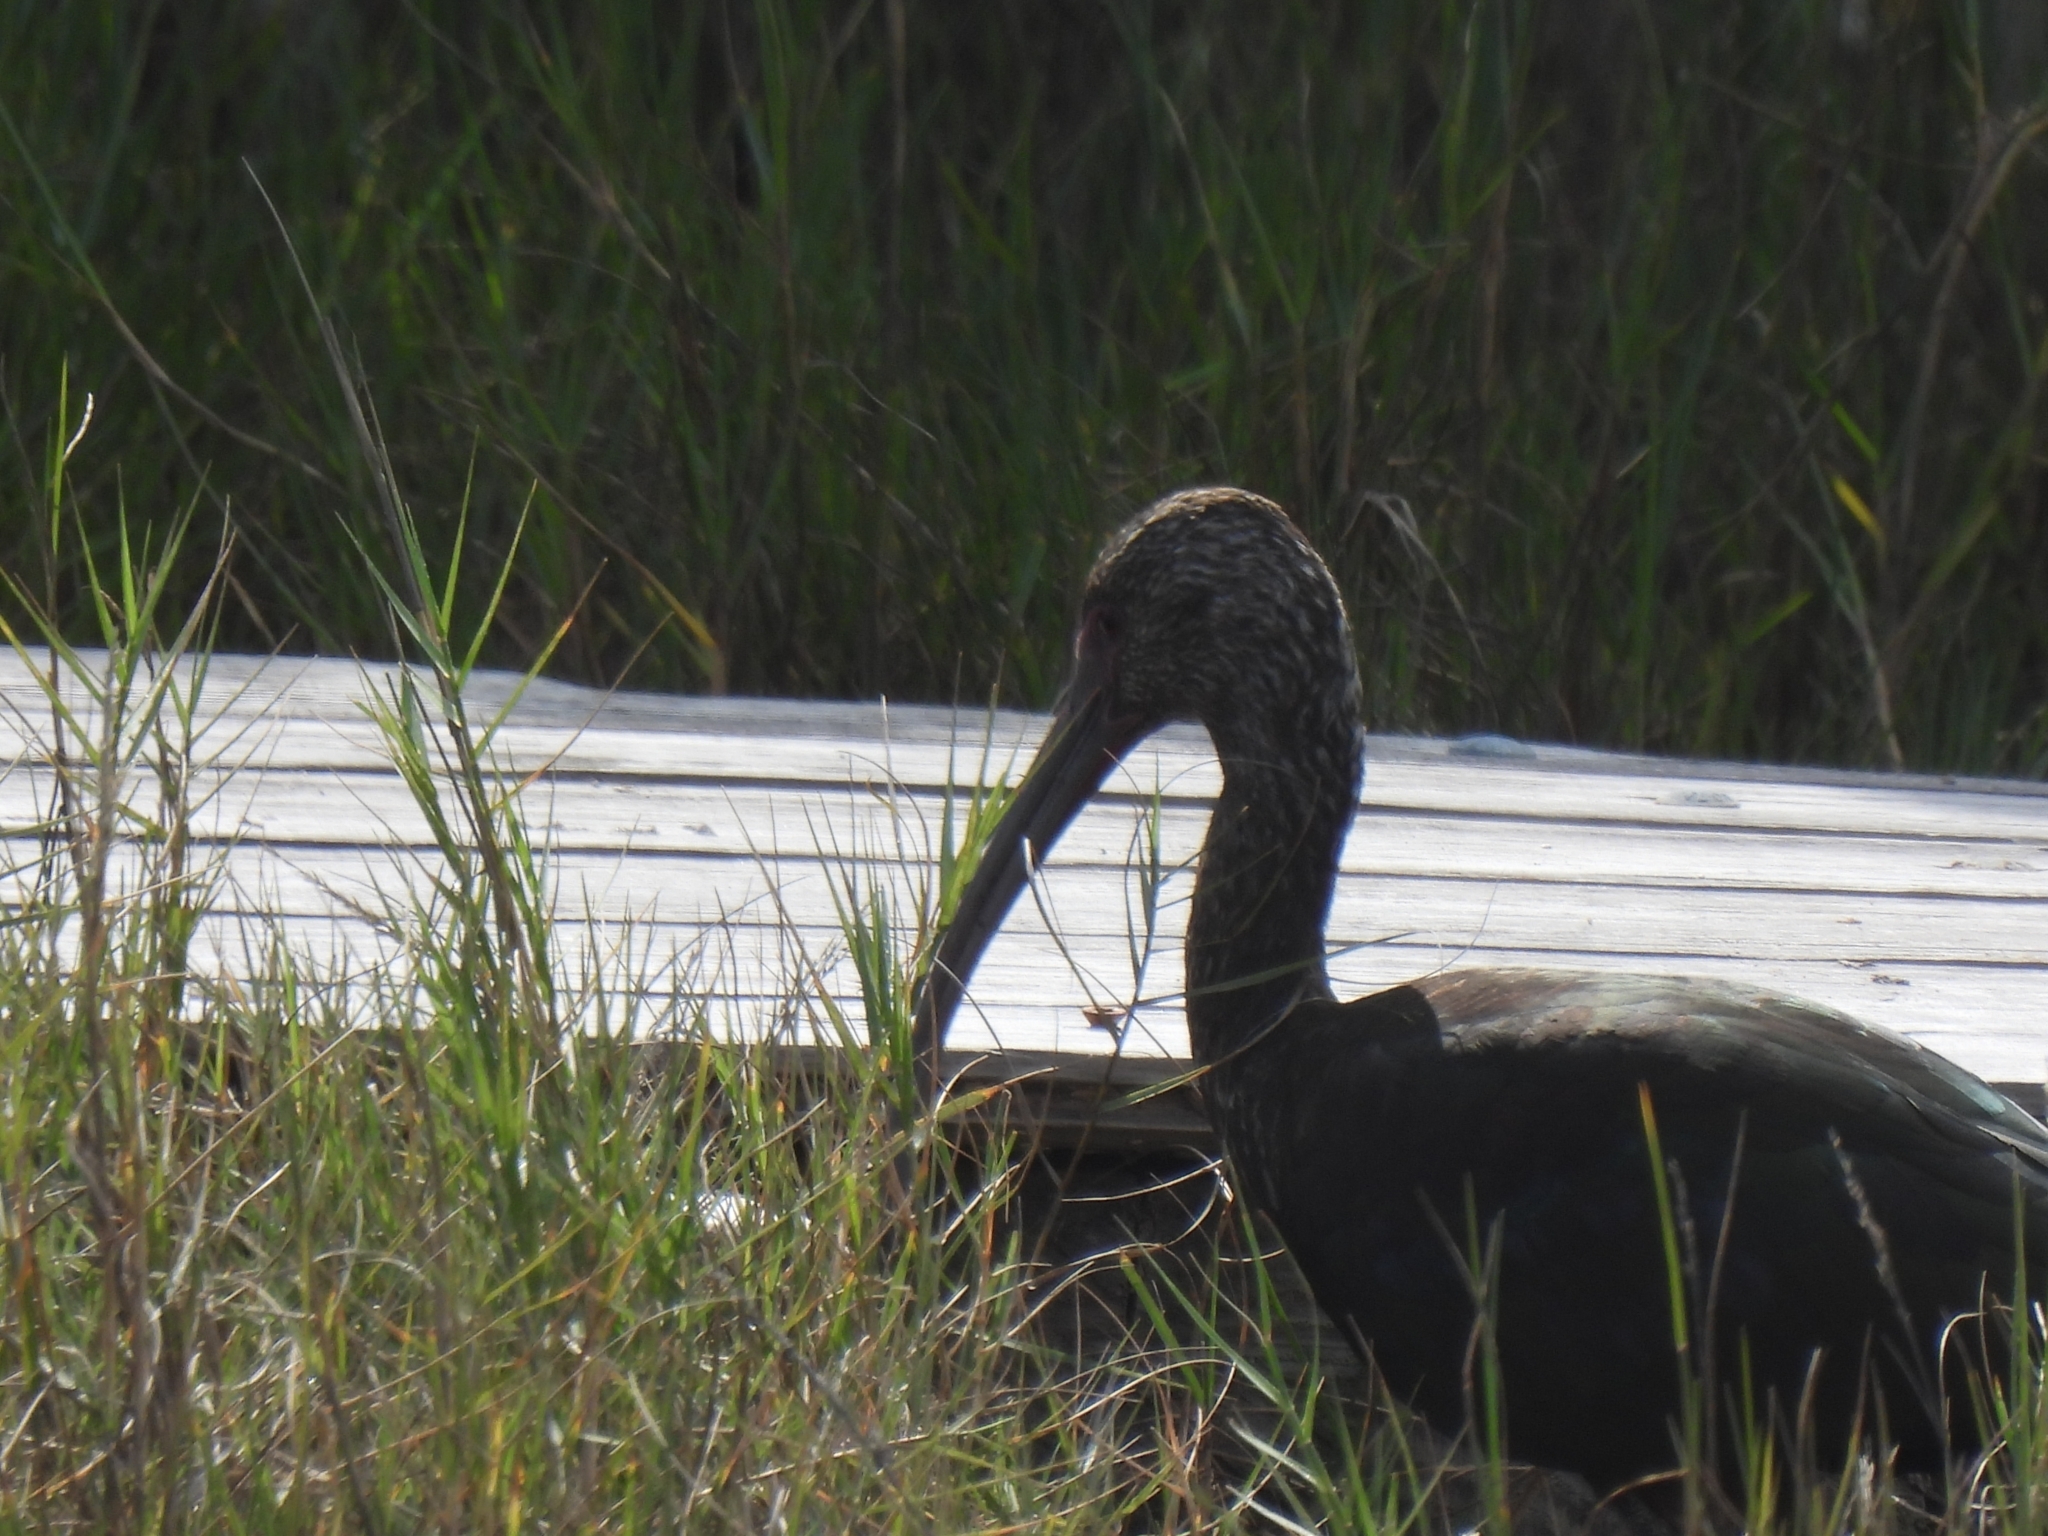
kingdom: Animalia
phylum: Chordata
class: Aves
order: Pelecaniformes
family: Threskiornithidae
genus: Plegadis
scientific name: Plegadis chihi
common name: White-faced ibis
